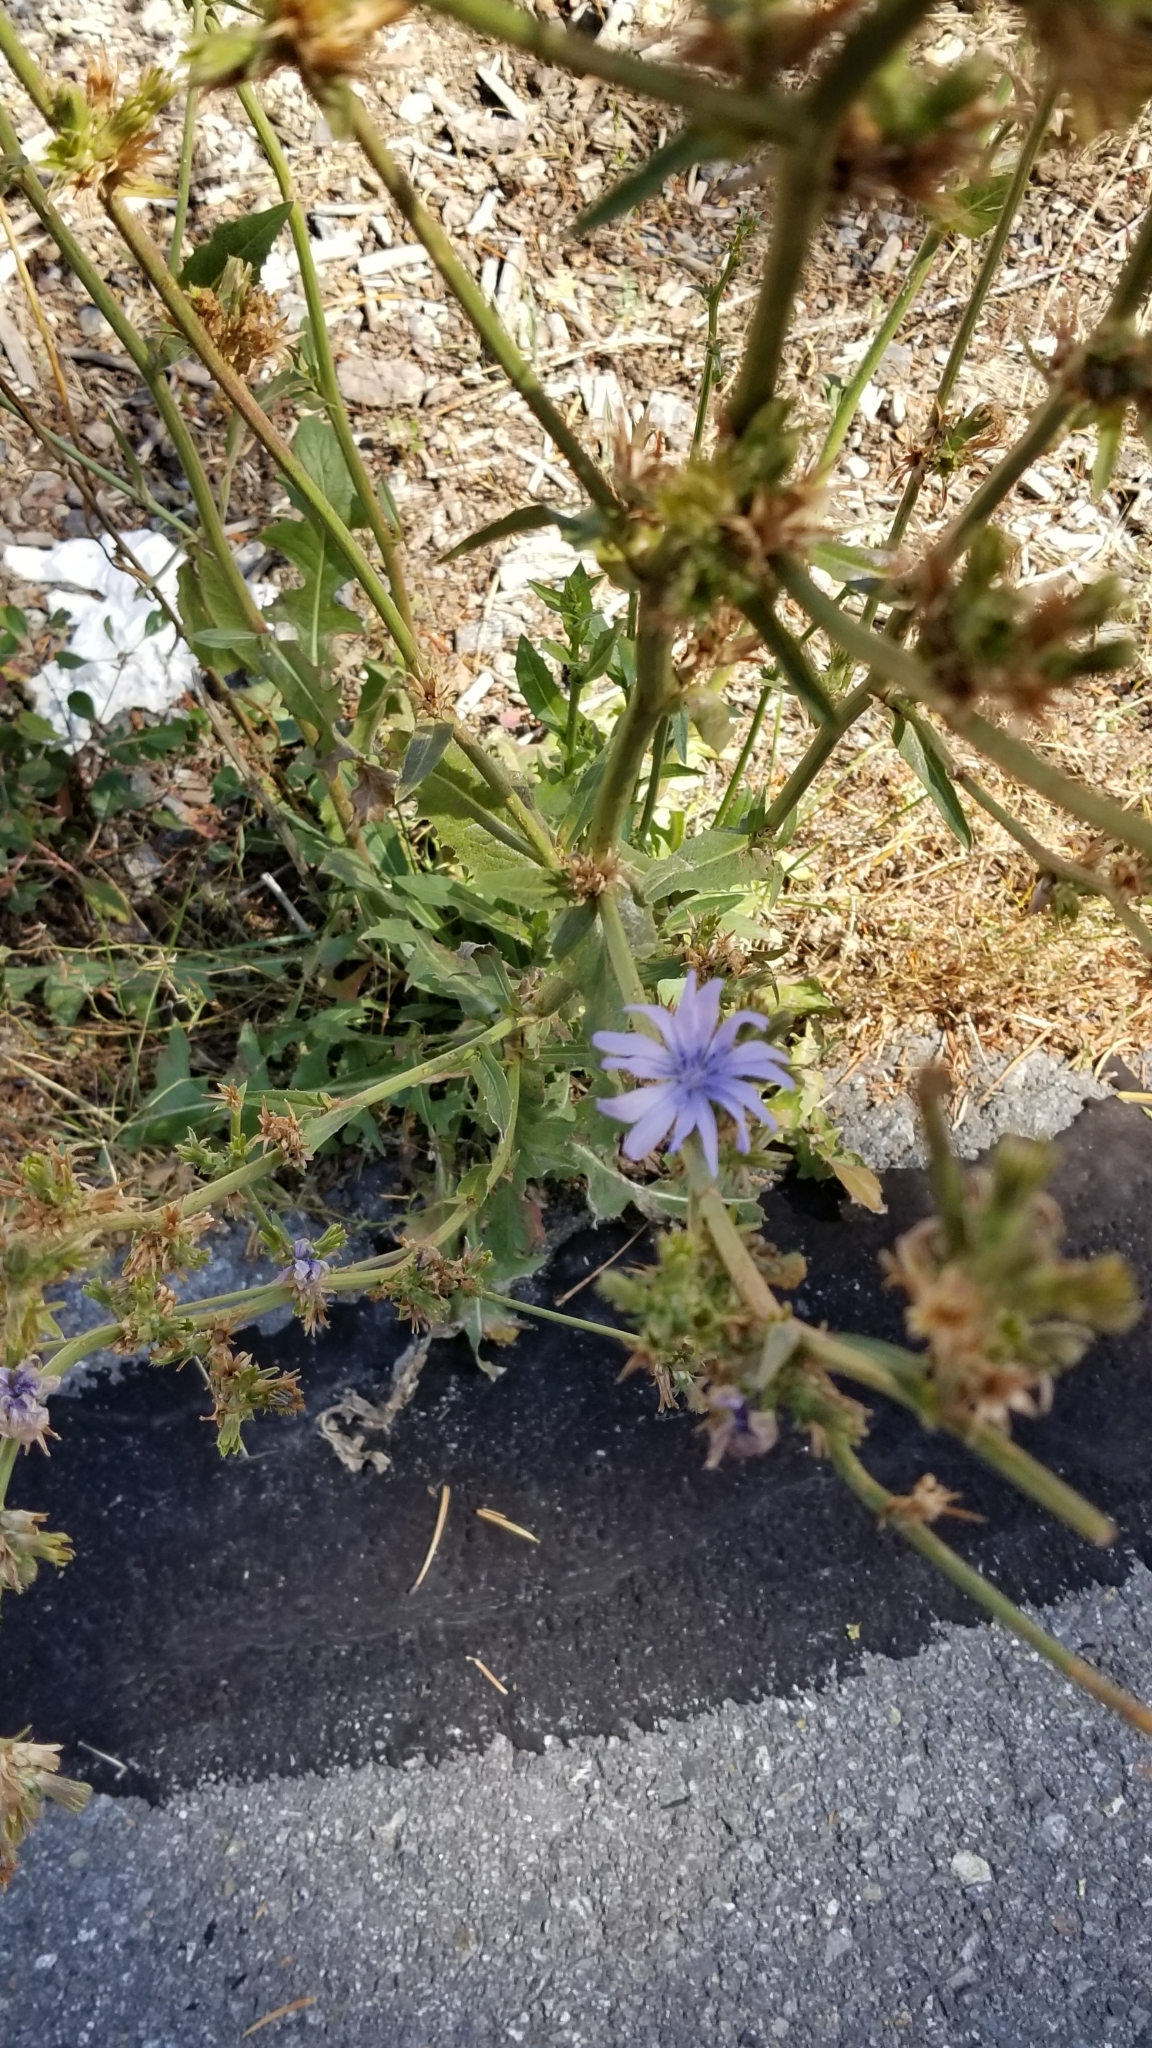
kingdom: Plantae
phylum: Tracheophyta
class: Magnoliopsida
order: Asterales
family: Asteraceae
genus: Cichorium
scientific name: Cichorium intybus
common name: Chicory
